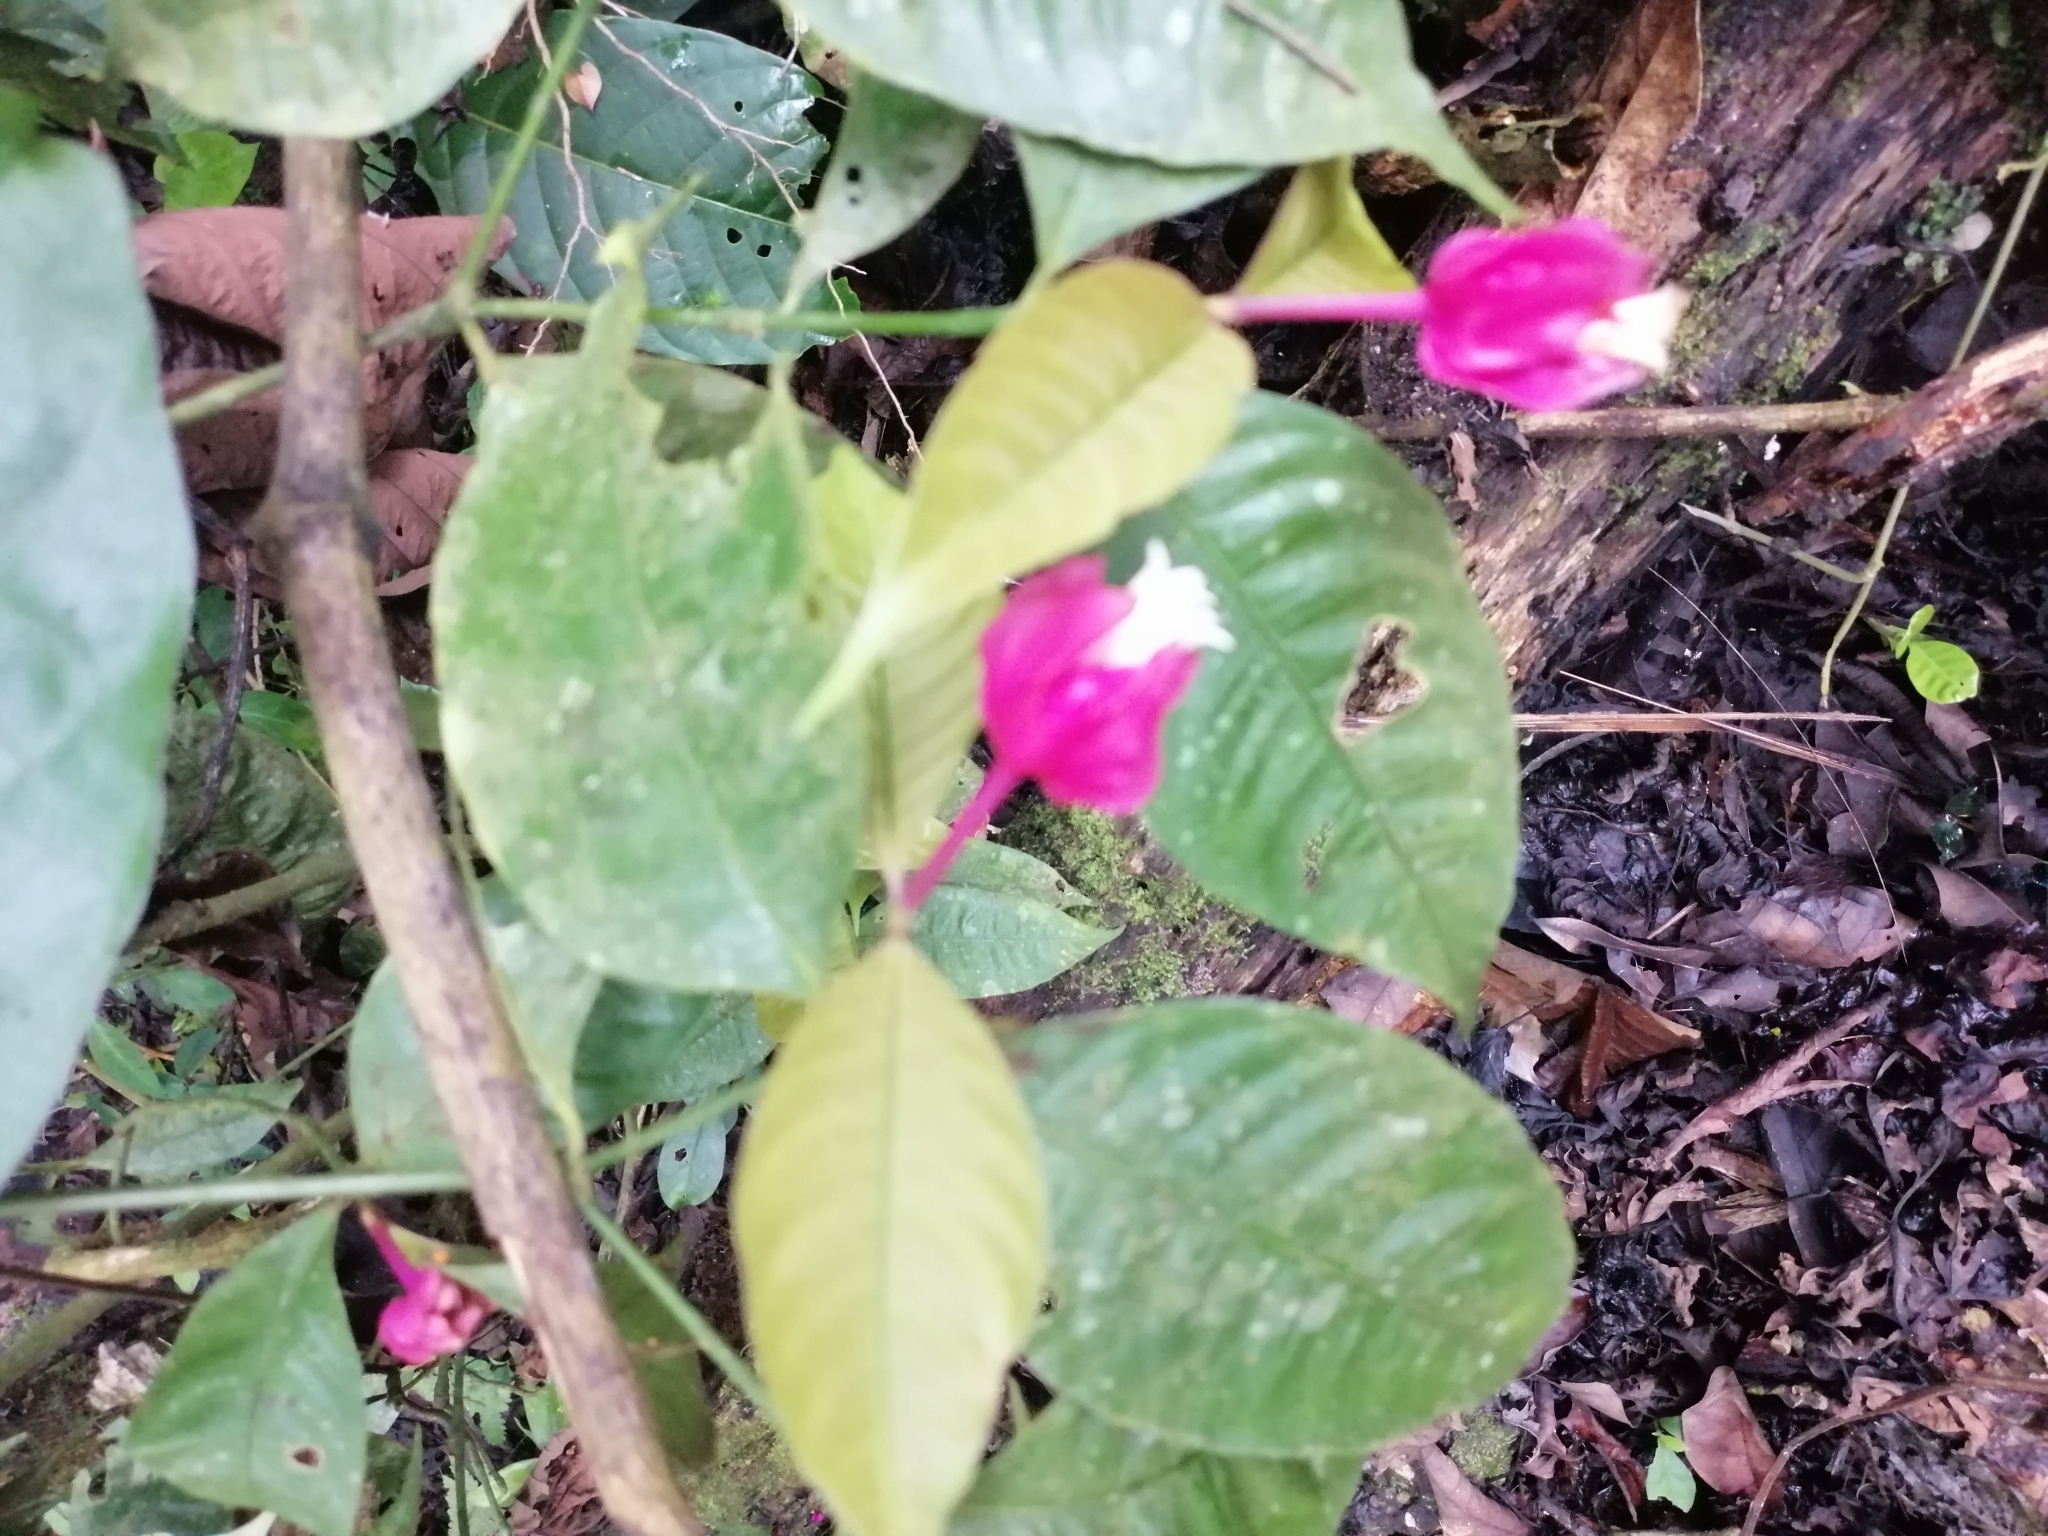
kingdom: Plantae
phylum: Tracheophyta
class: Magnoliopsida
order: Gentianales
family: Rubiaceae
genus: Palicourea
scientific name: Palicourea ostreophora
